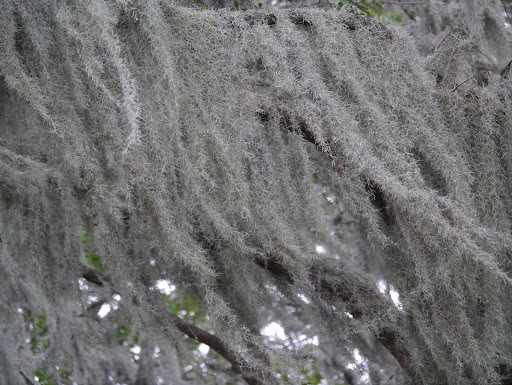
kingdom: Plantae
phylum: Tracheophyta
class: Liliopsida
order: Poales
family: Bromeliaceae
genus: Tillandsia
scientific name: Tillandsia usneoides
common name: Spanish moss
